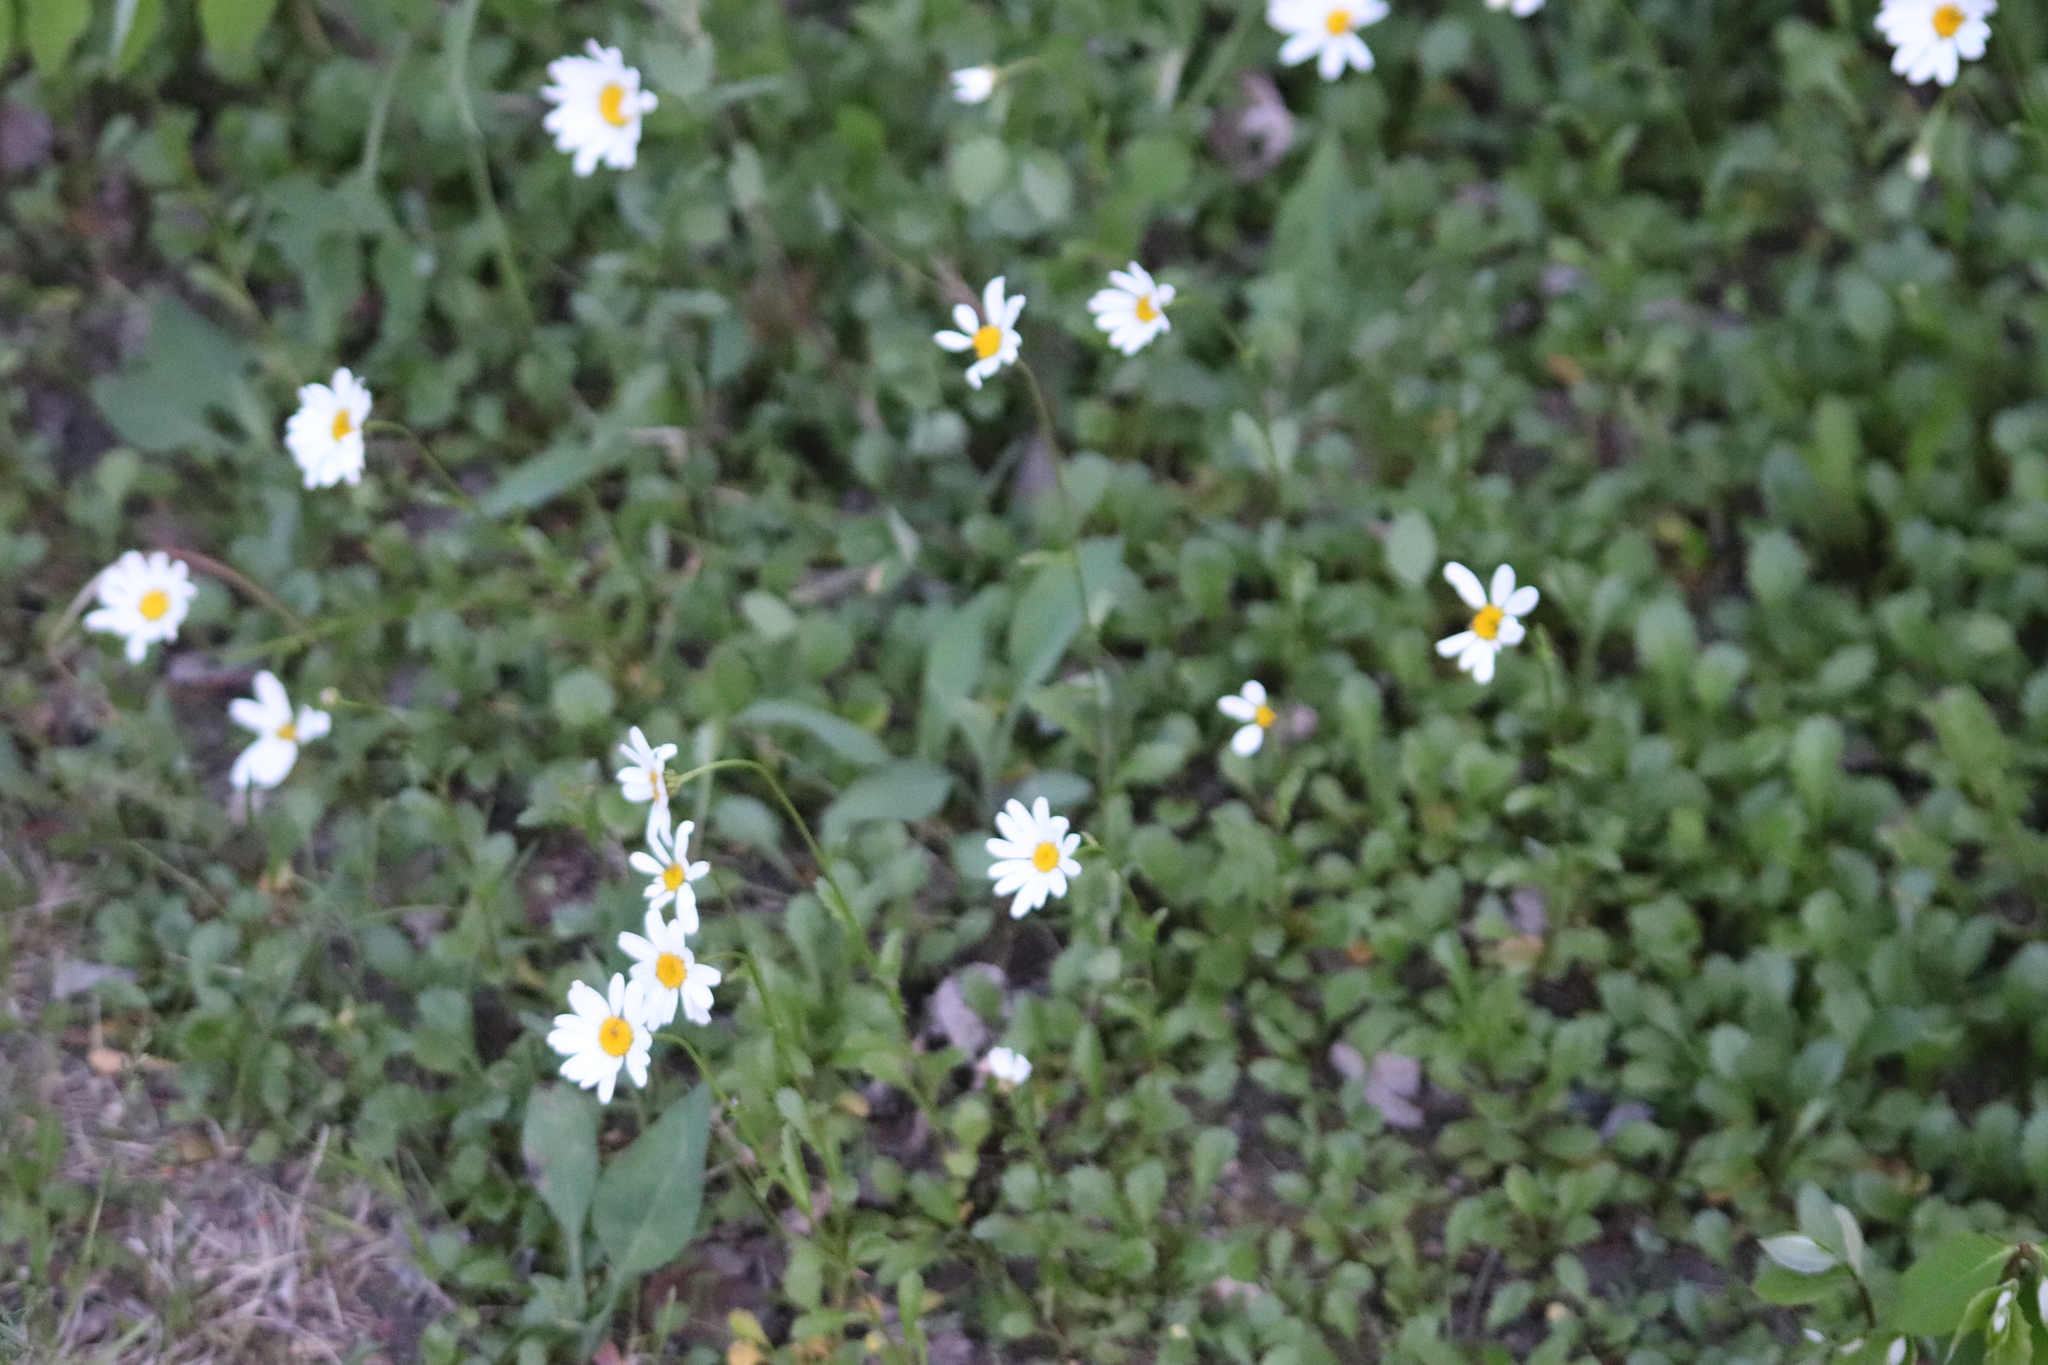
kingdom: Plantae
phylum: Tracheophyta
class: Magnoliopsida
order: Asterales
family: Asteraceae
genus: Leucanthemum
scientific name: Leucanthemum vulgare
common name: Oxeye daisy
